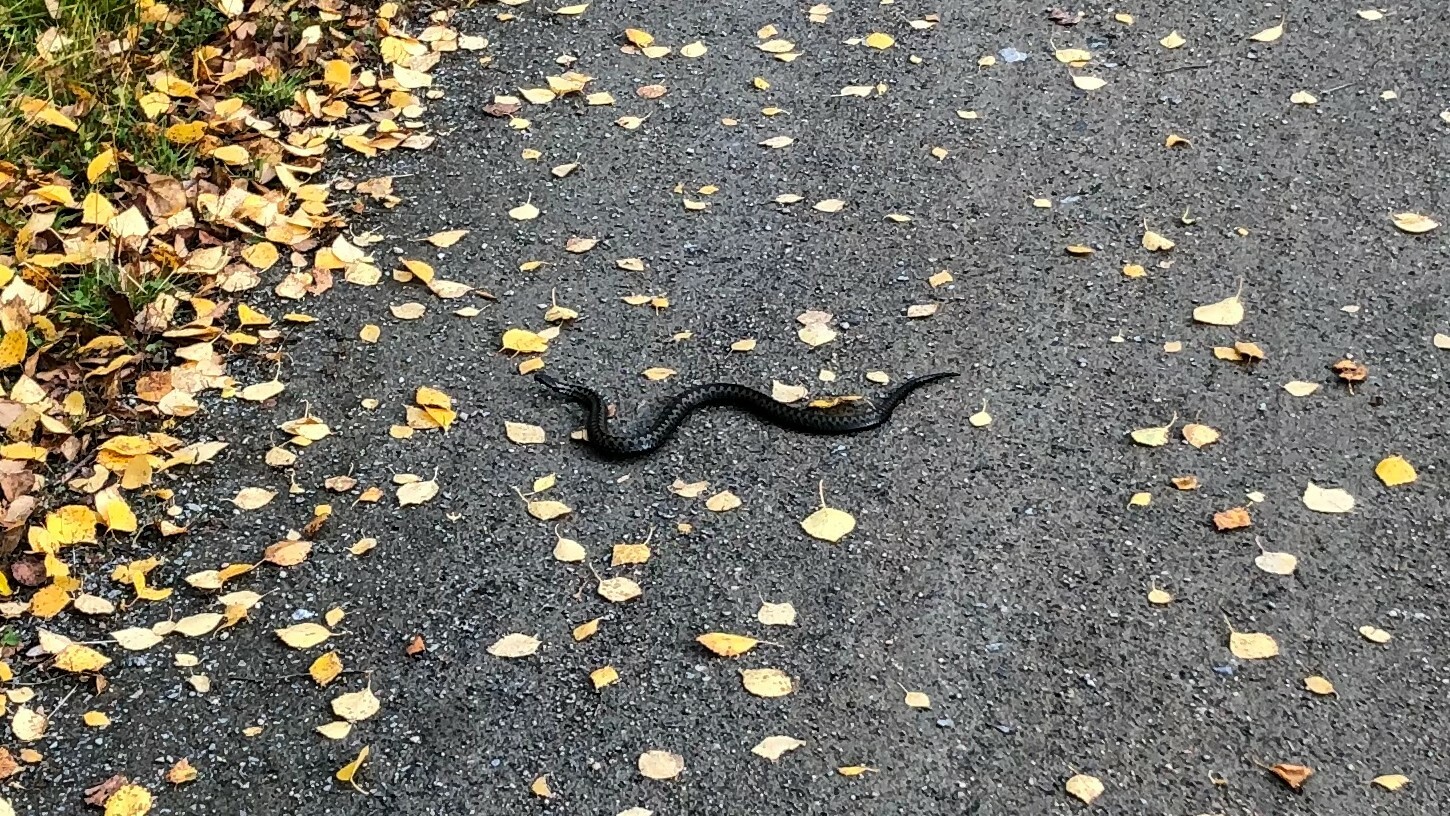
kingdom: Animalia
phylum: Chordata
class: Squamata
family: Viperidae
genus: Vipera
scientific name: Vipera berus
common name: Adder
